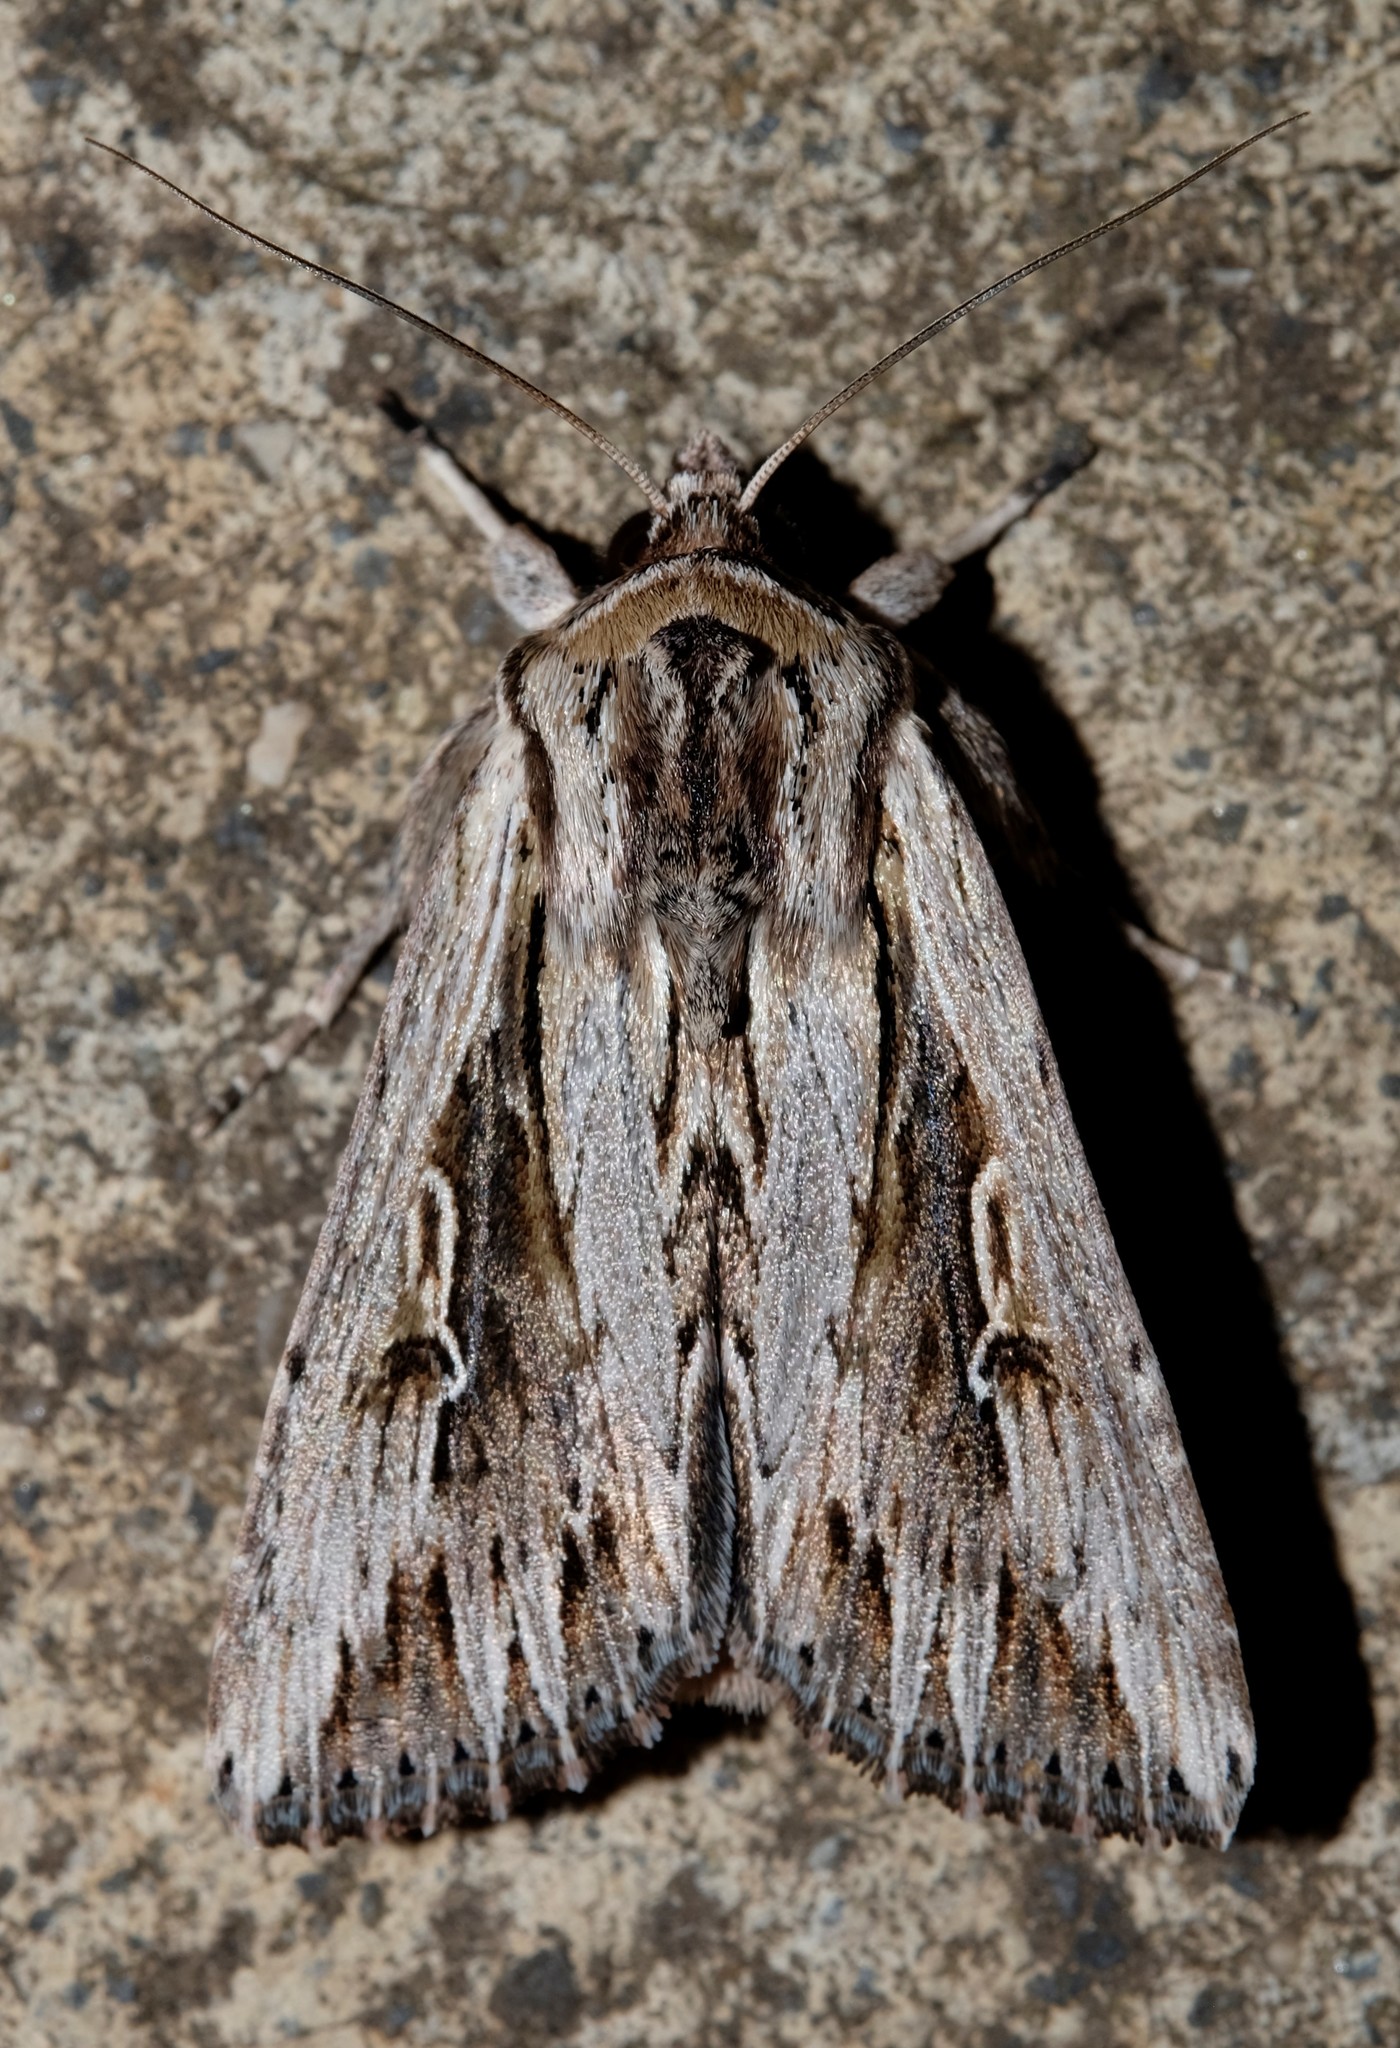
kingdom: Animalia
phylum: Arthropoda
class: Insecta
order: Lepidoptera
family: Noctuidae
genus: Persectania
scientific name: Persectania ewingii
